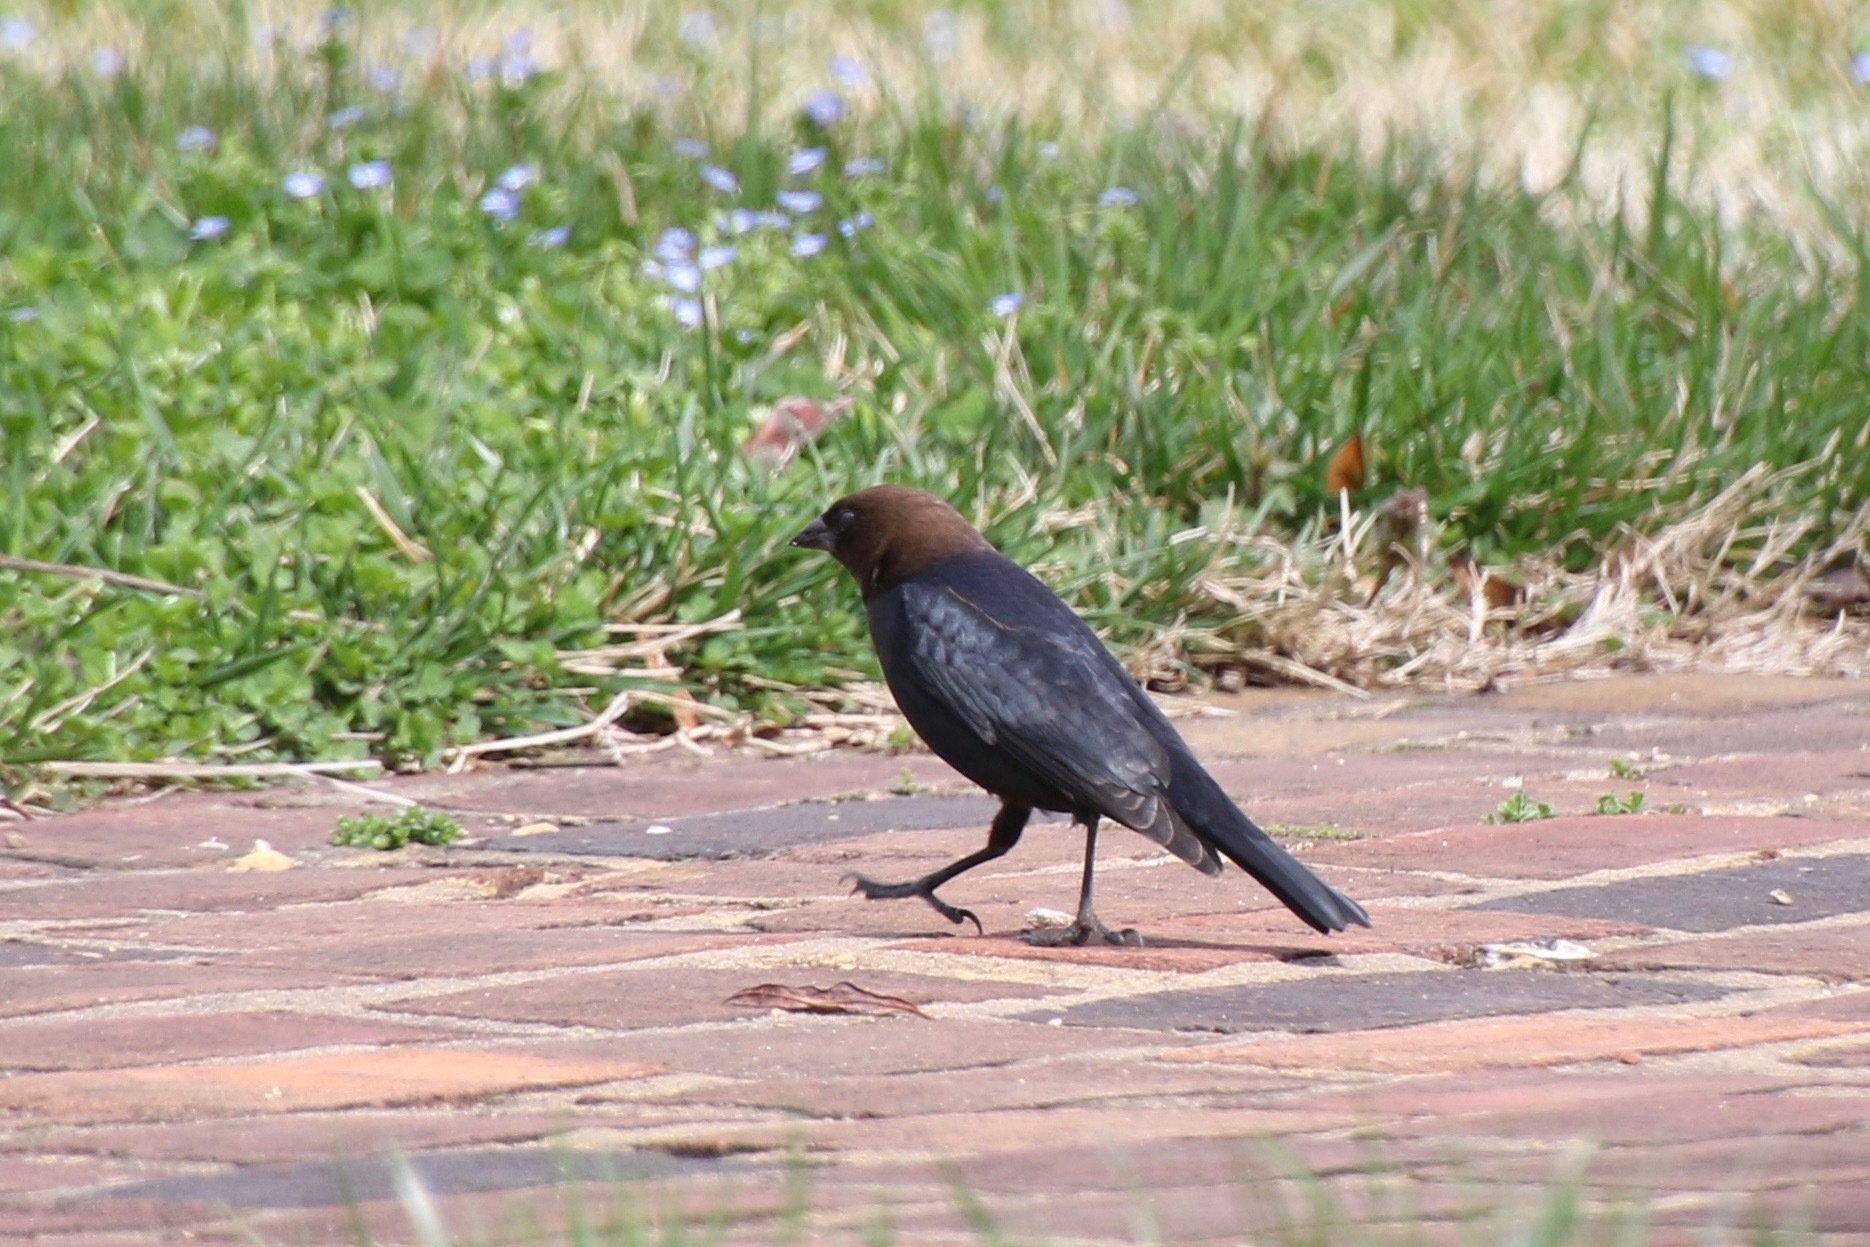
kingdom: Animalia
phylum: Chordata
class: Aves
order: Passeriformes
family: Icteridae
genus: Molothrus
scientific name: Molothrus ater
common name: Brown-headed cowbird
